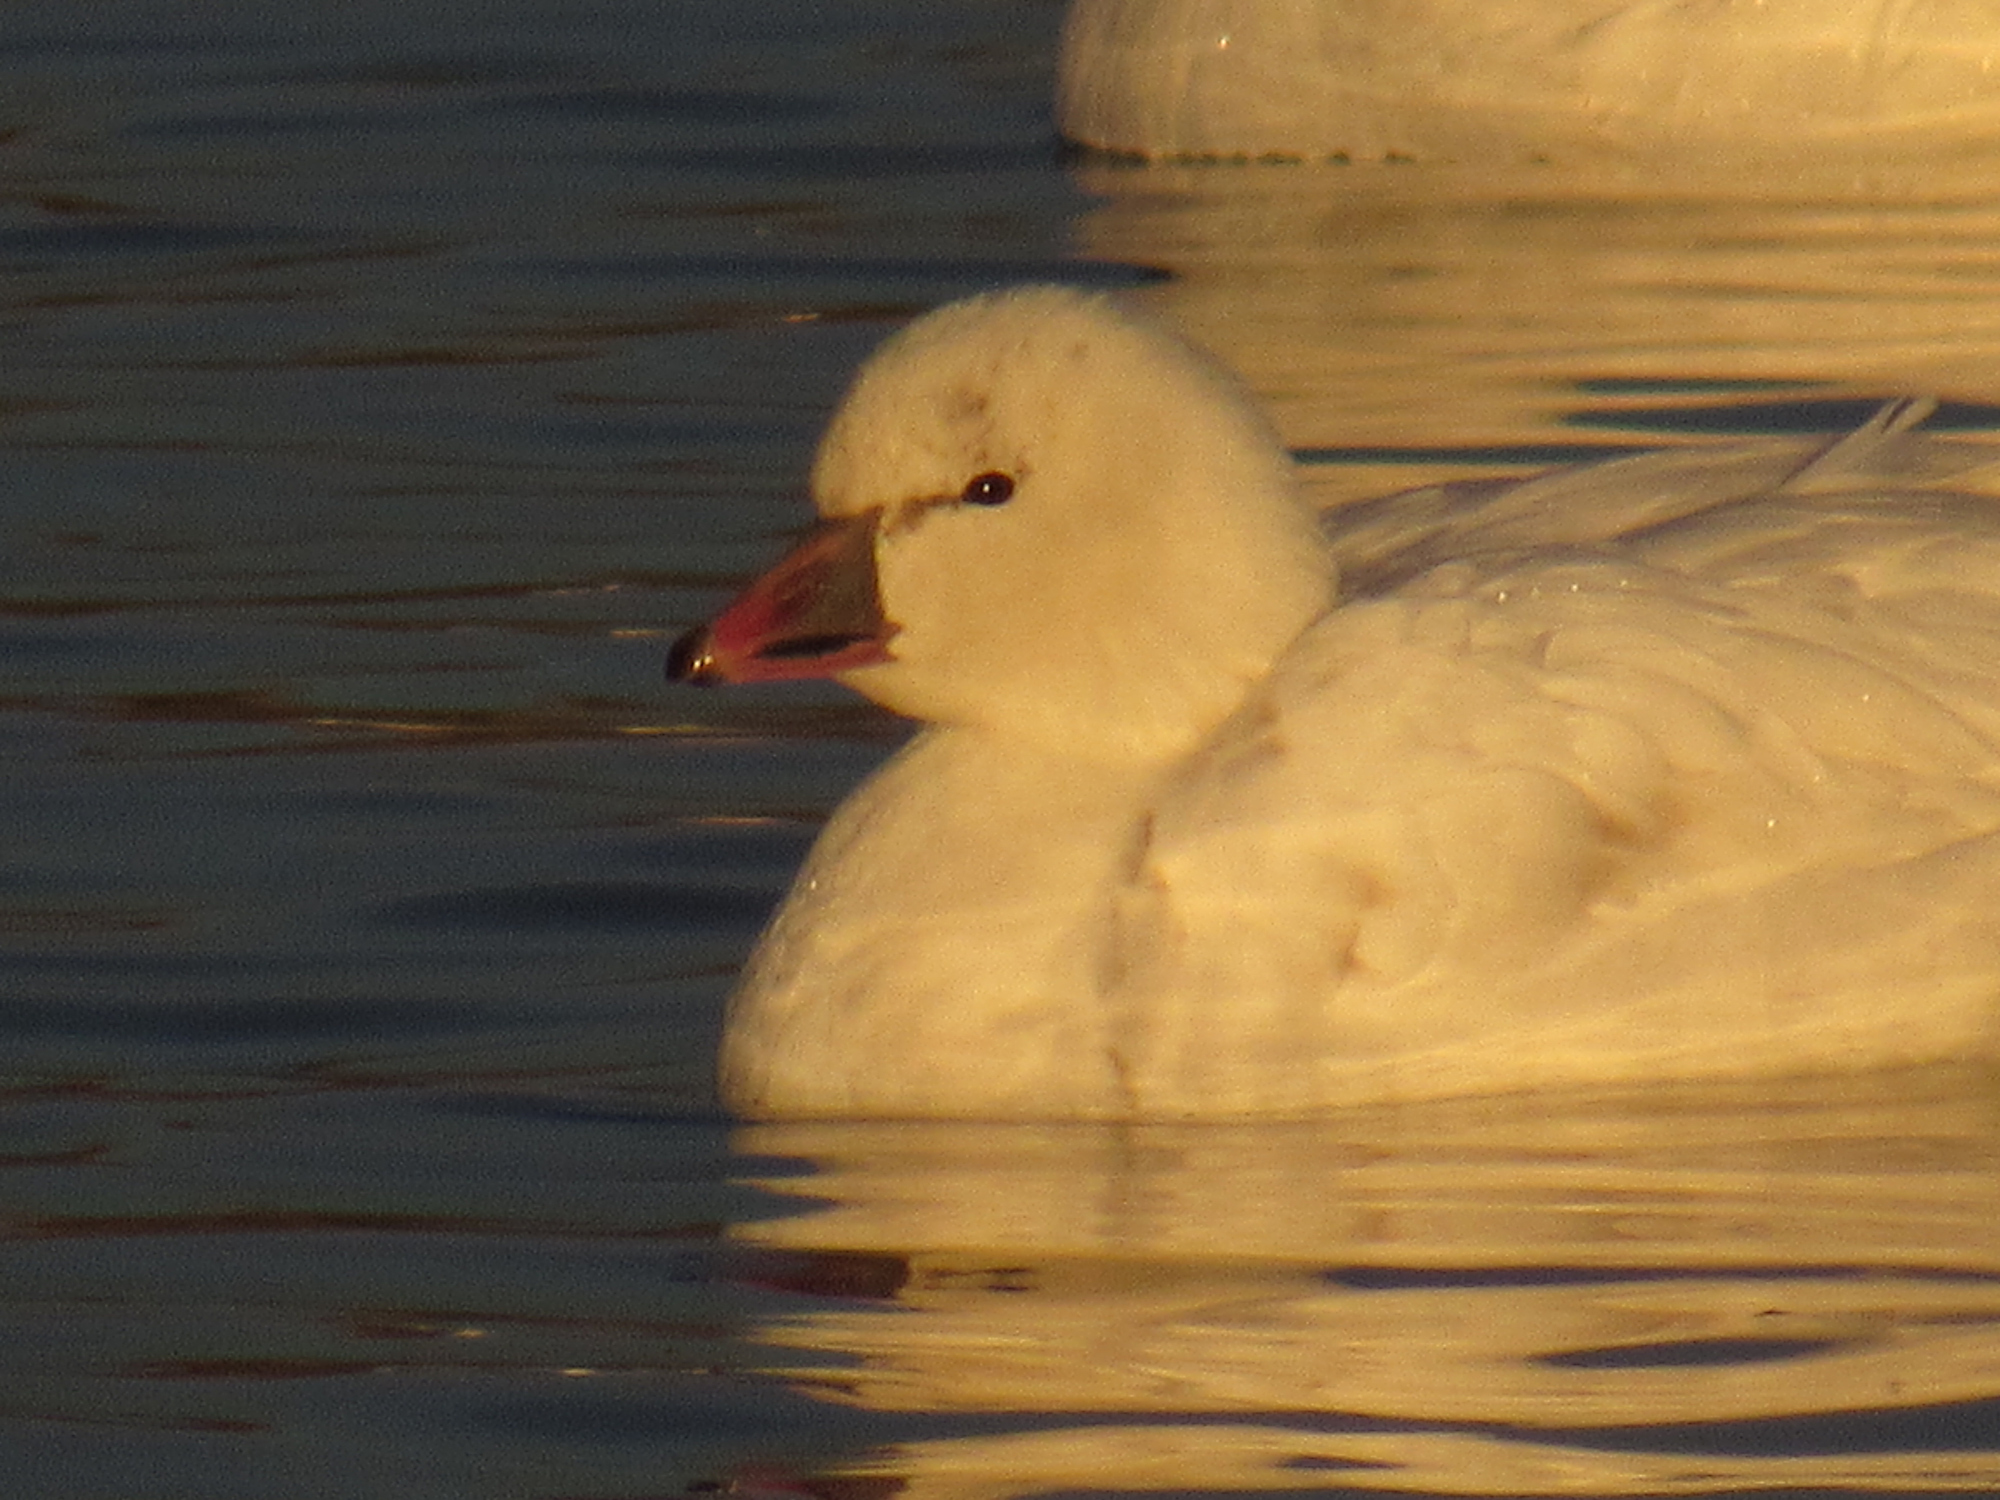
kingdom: Animalia
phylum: Chordata
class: Aves
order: Anseriformes
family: Anatidae
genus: Anser
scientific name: Anser rossii
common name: Ross's goose
